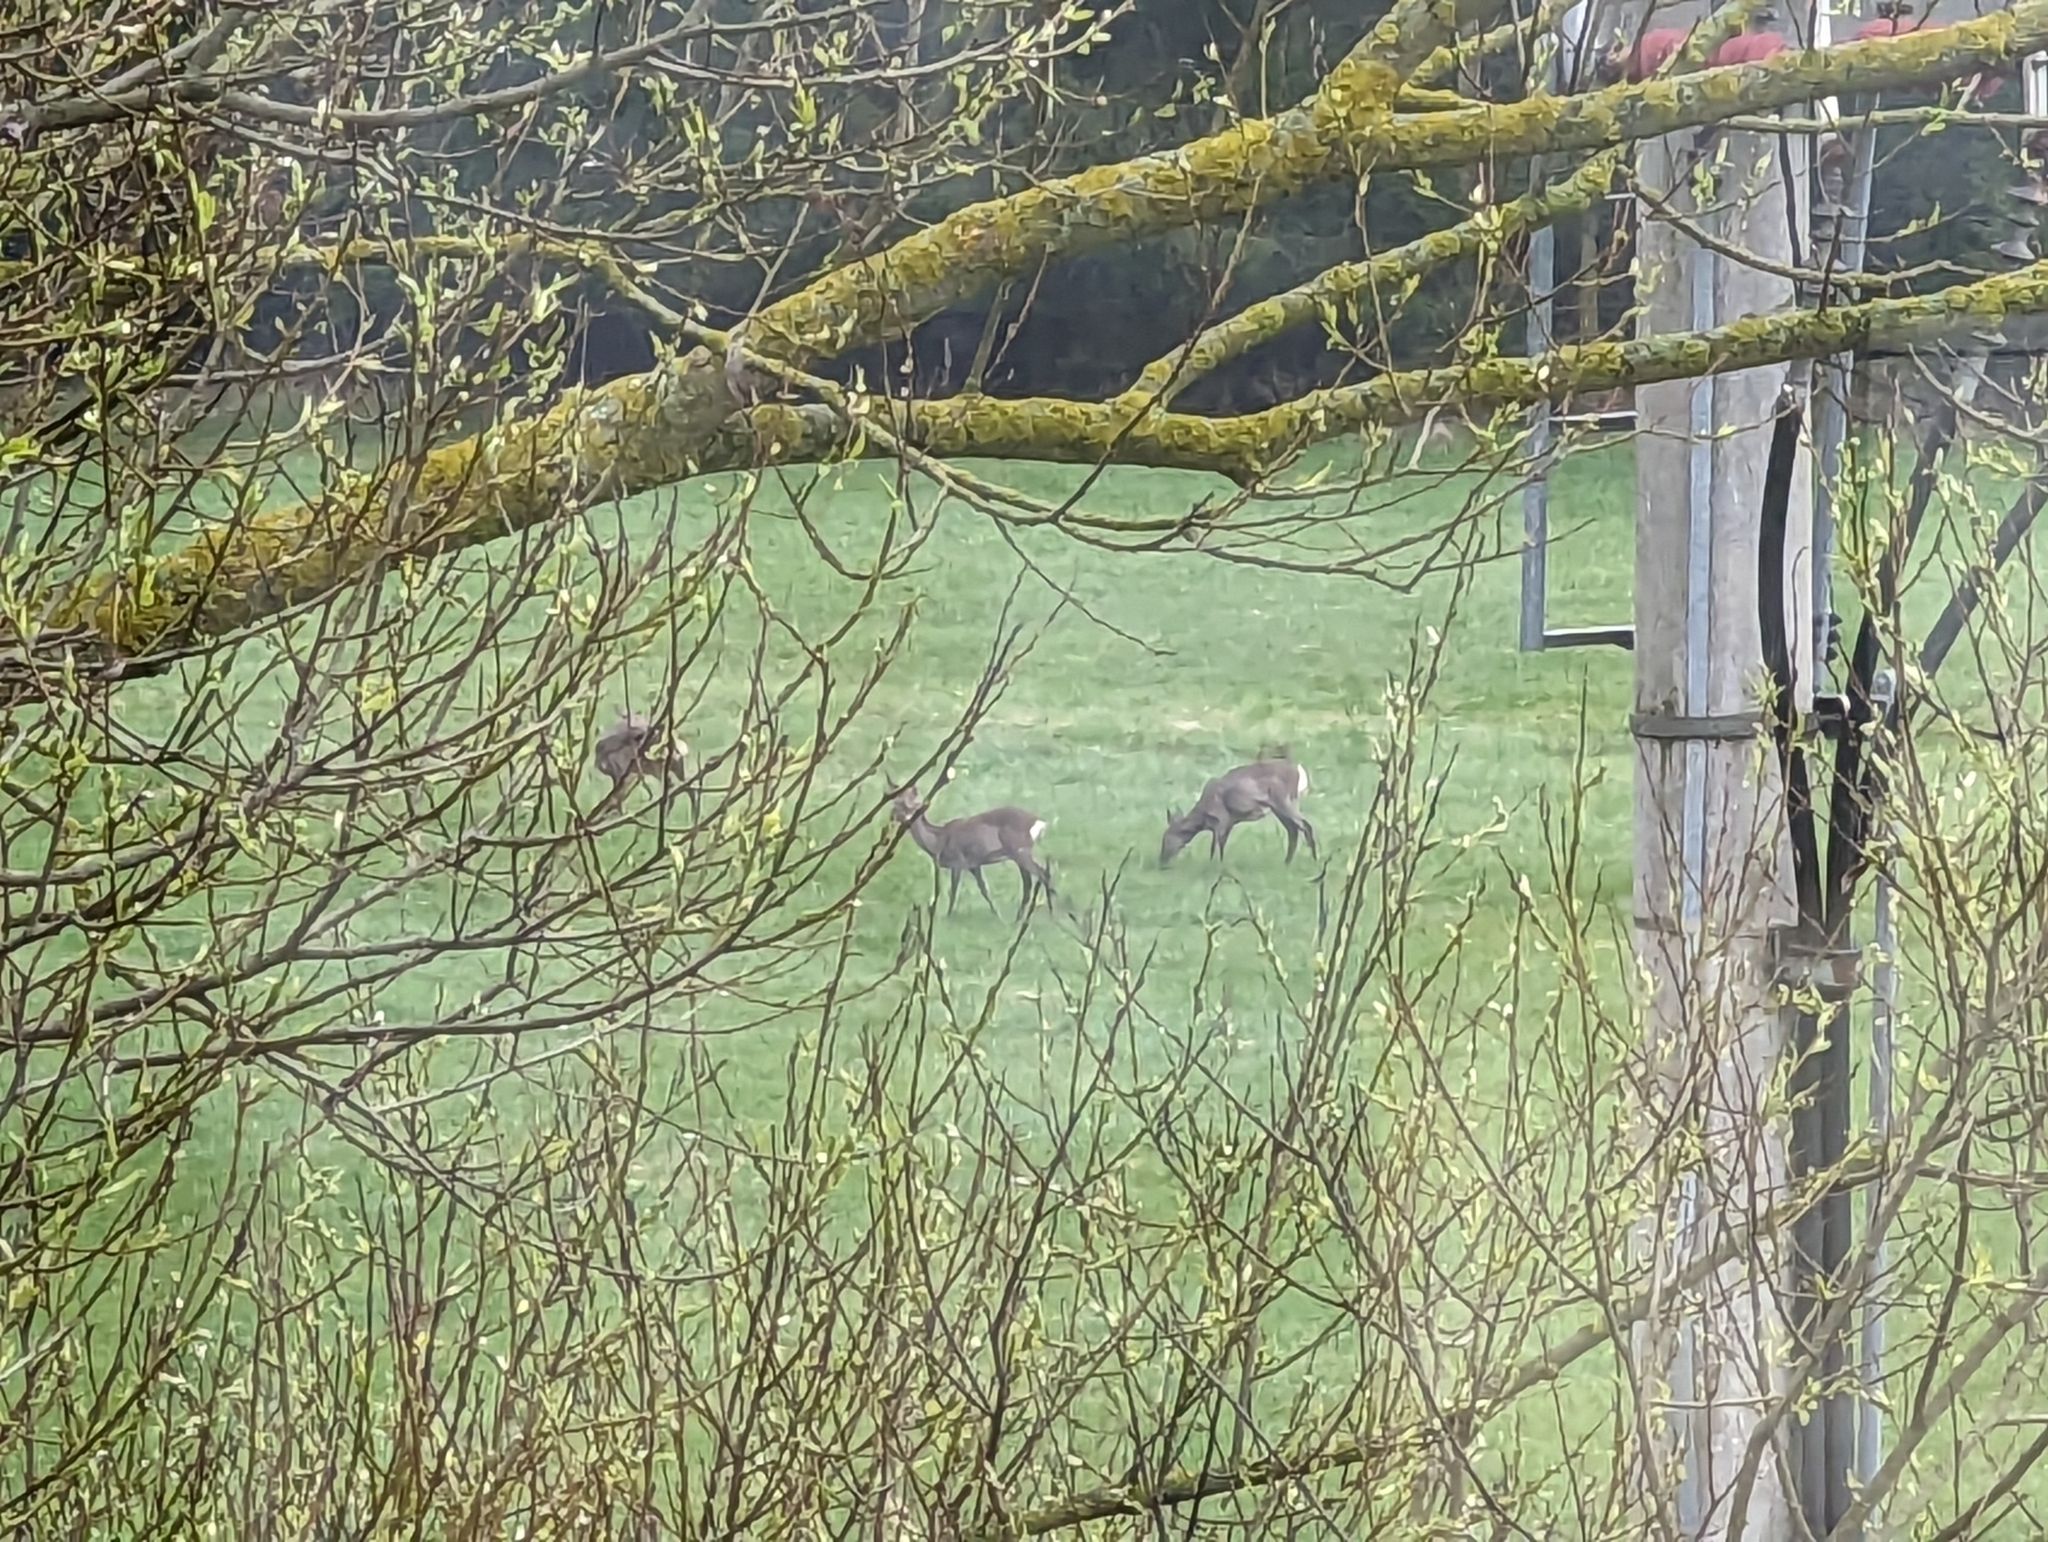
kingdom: Animalia
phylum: Chordata
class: Mammalia
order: Artiodactyla
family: Cervidae
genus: Capreolus
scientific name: Capreolus capreolus
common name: Western roe deer
